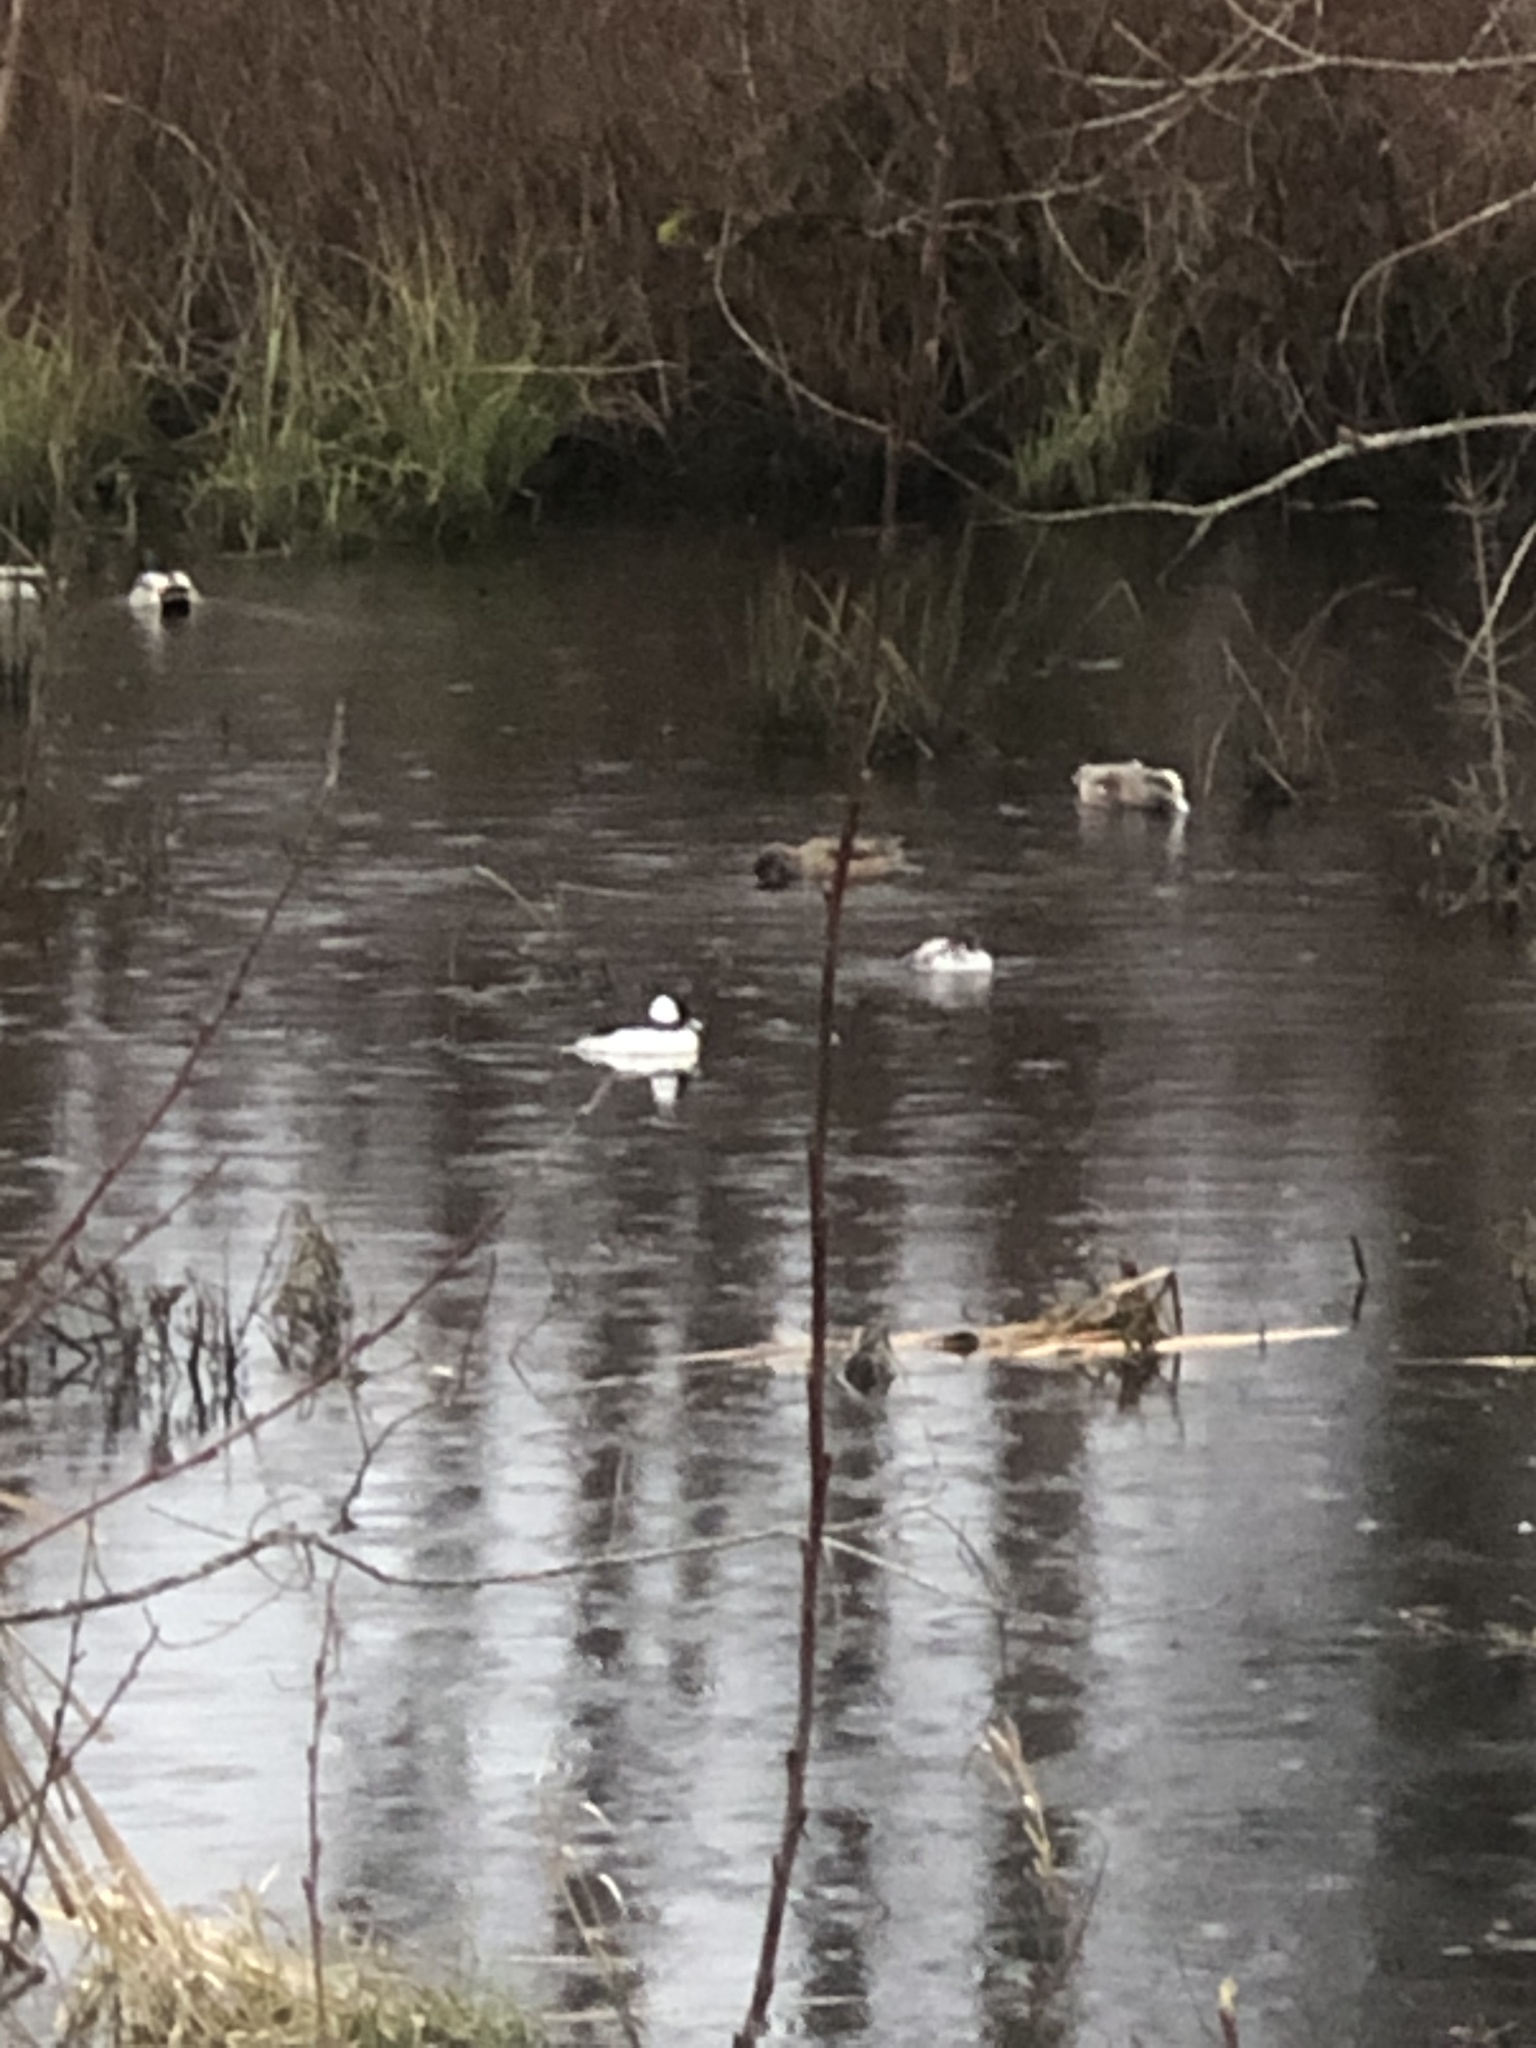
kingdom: Animalia
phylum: Chordata
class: Aves
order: Anseriformes
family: Anatidae
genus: Bucephala
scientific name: Bucephala albeola
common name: Bufflehead
